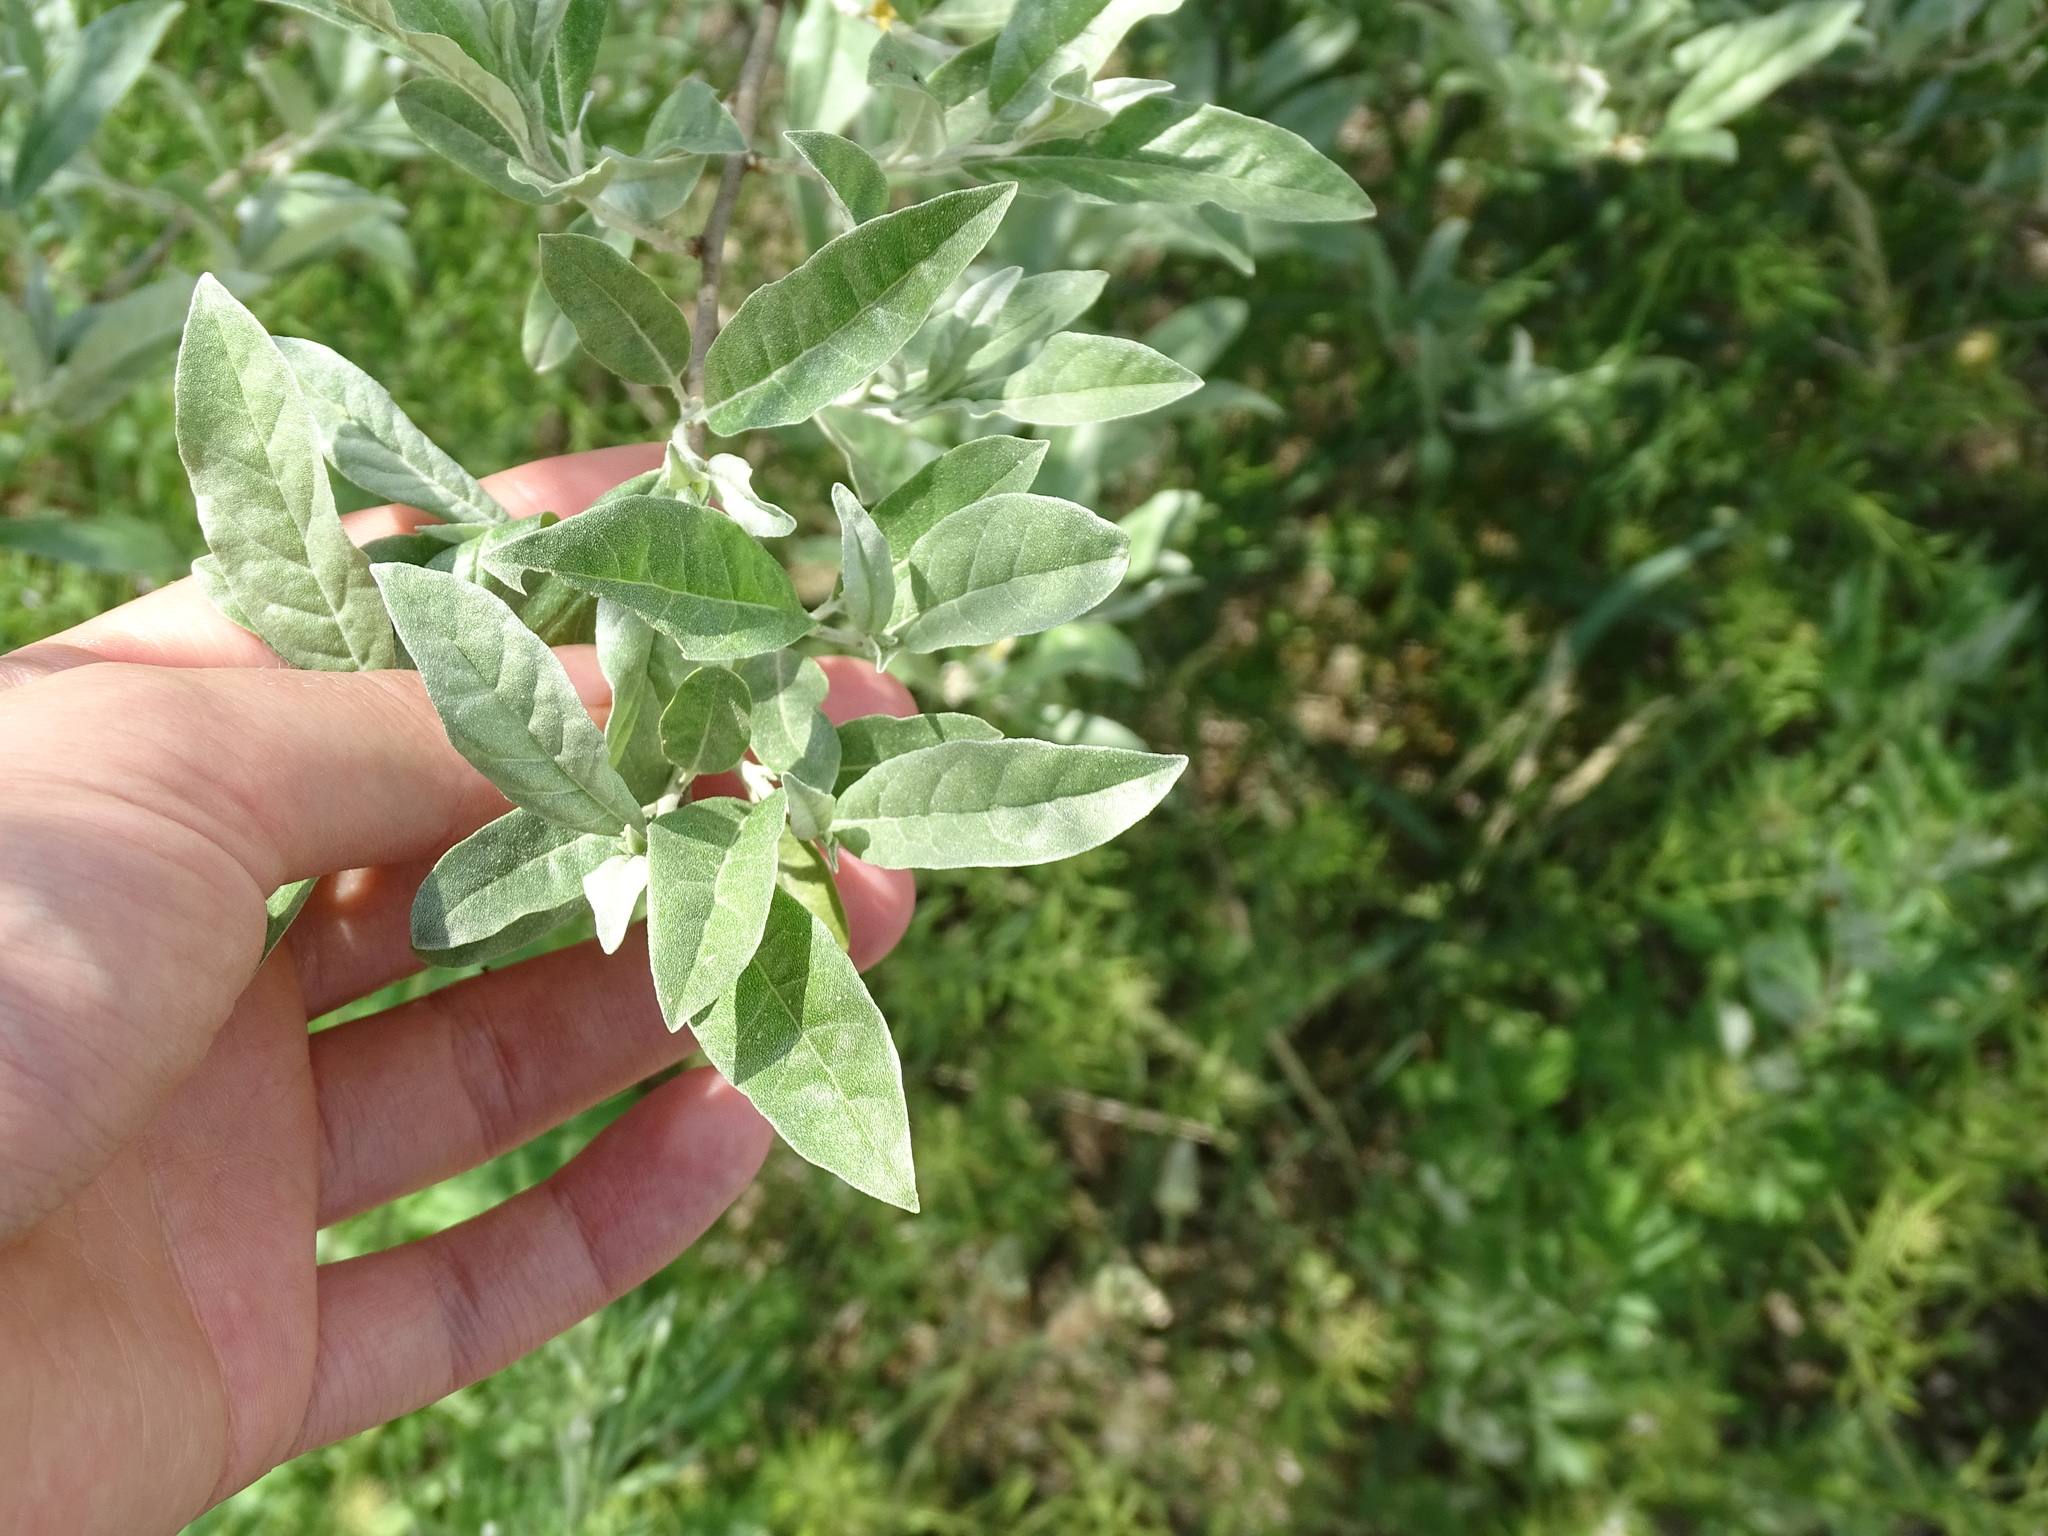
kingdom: Plantae
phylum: Tracheophyta
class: Magnoliopsida
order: Rosales
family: Elaeagnaceae
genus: Elaeagnus
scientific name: Elaeagnus umbellata
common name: Autumn olive
